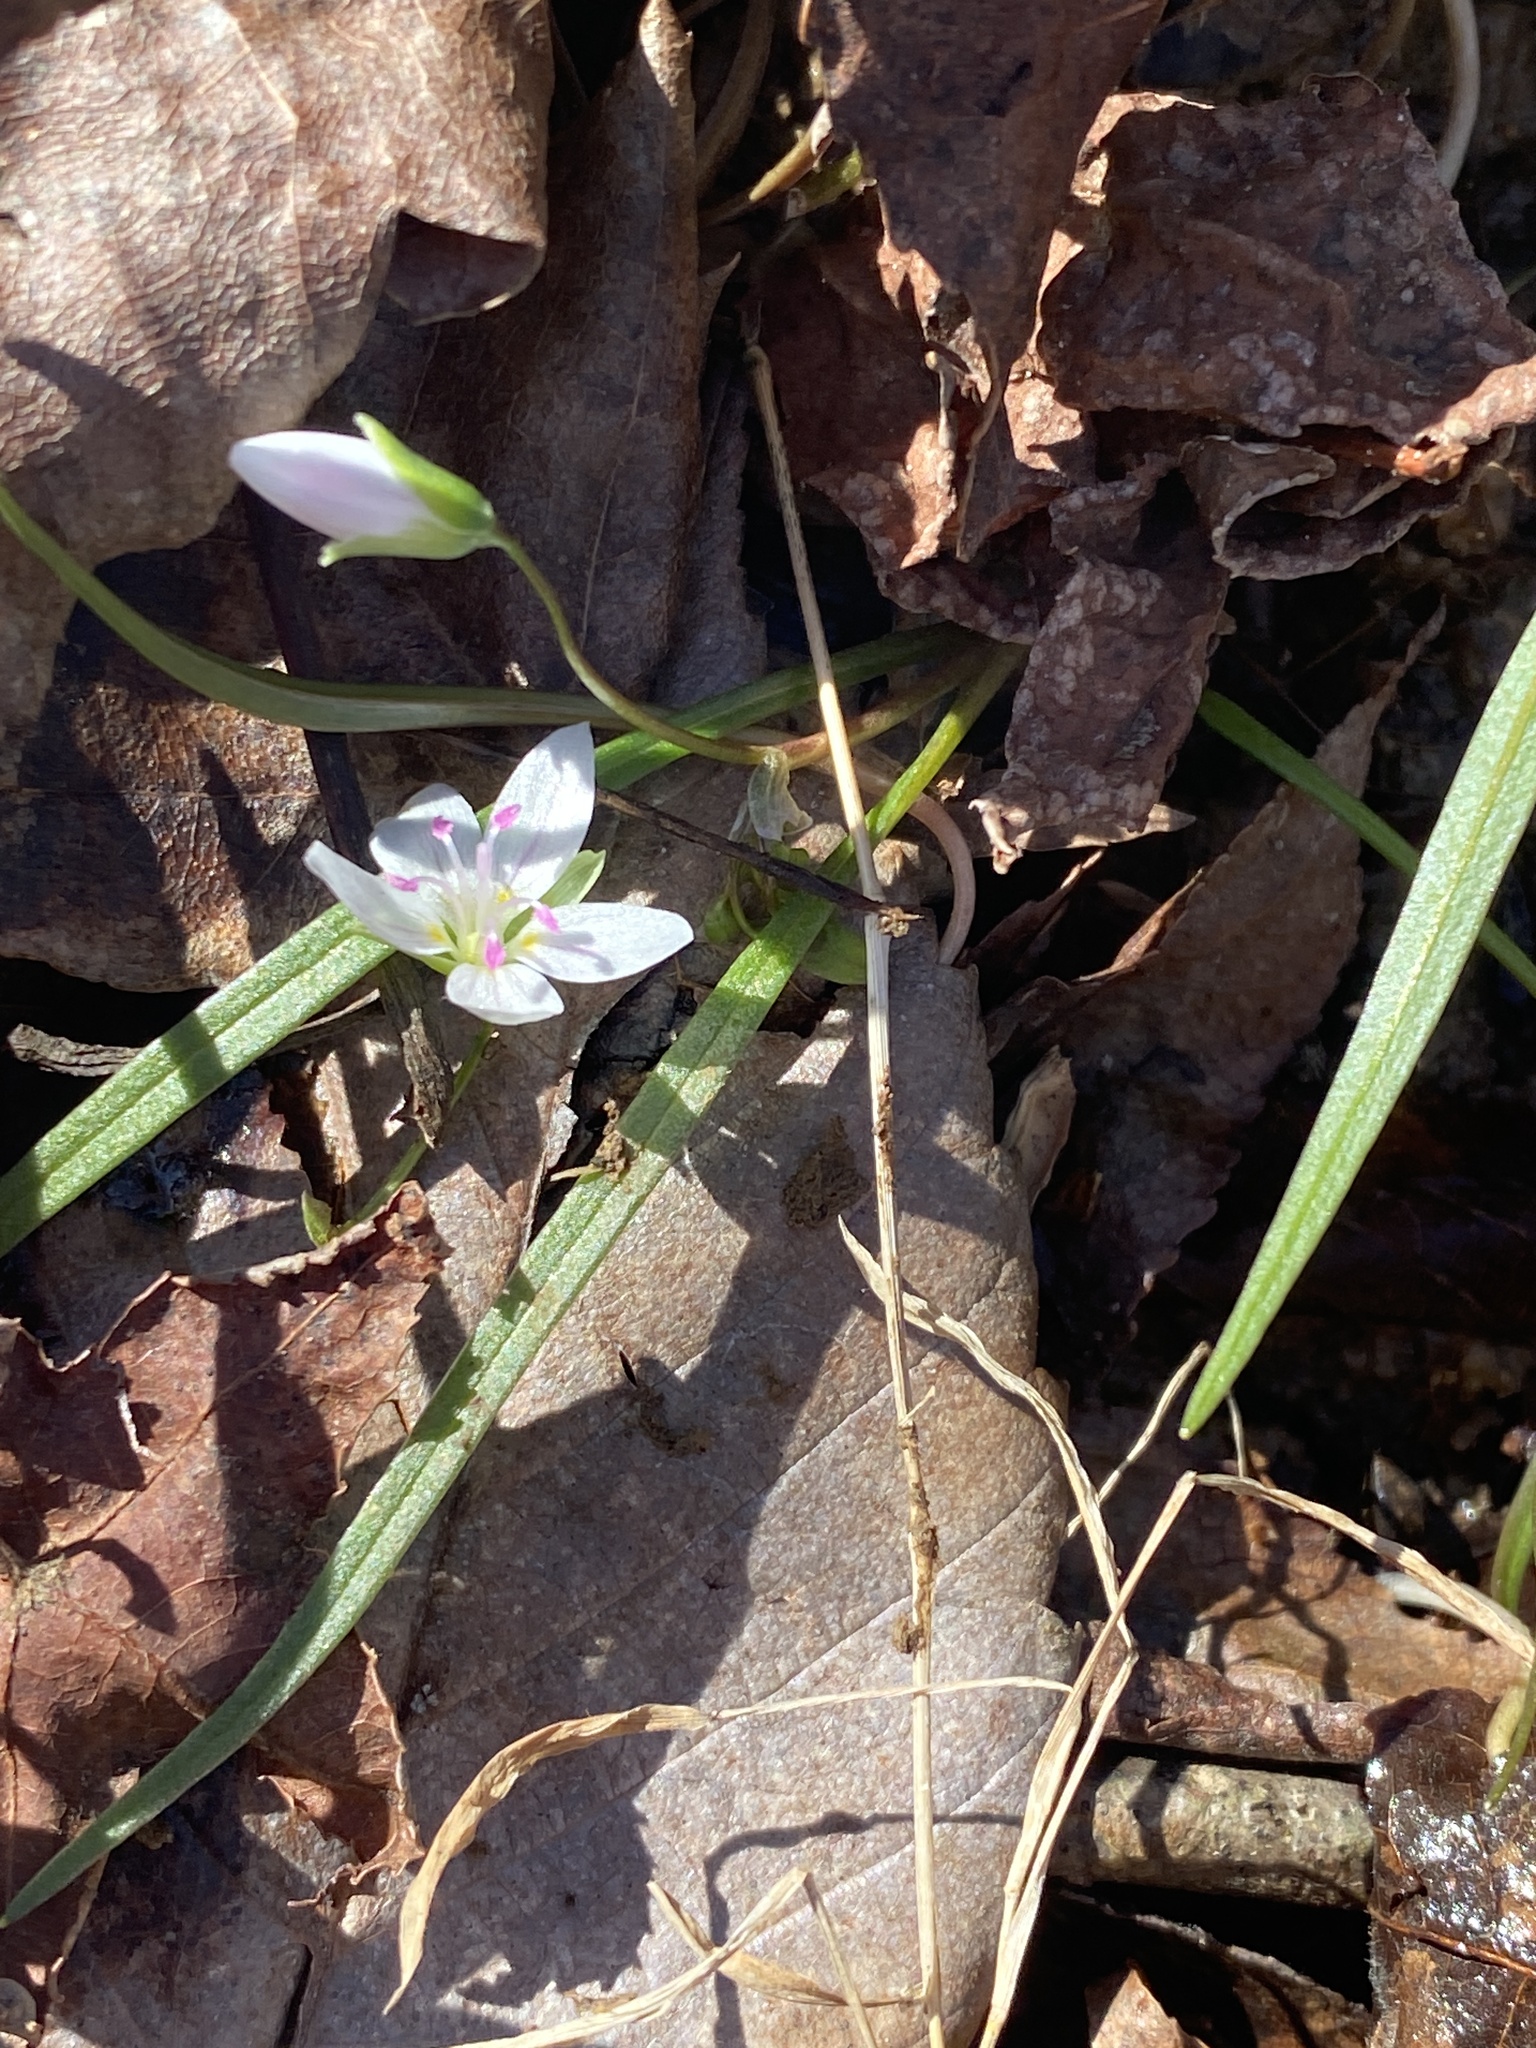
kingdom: Plantae
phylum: Tracheophyta
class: Magnoliopsida
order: Caryophyllales
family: Montiaceae
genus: Claytonia
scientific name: Claytonia virginica
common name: Virginia springbeauty
